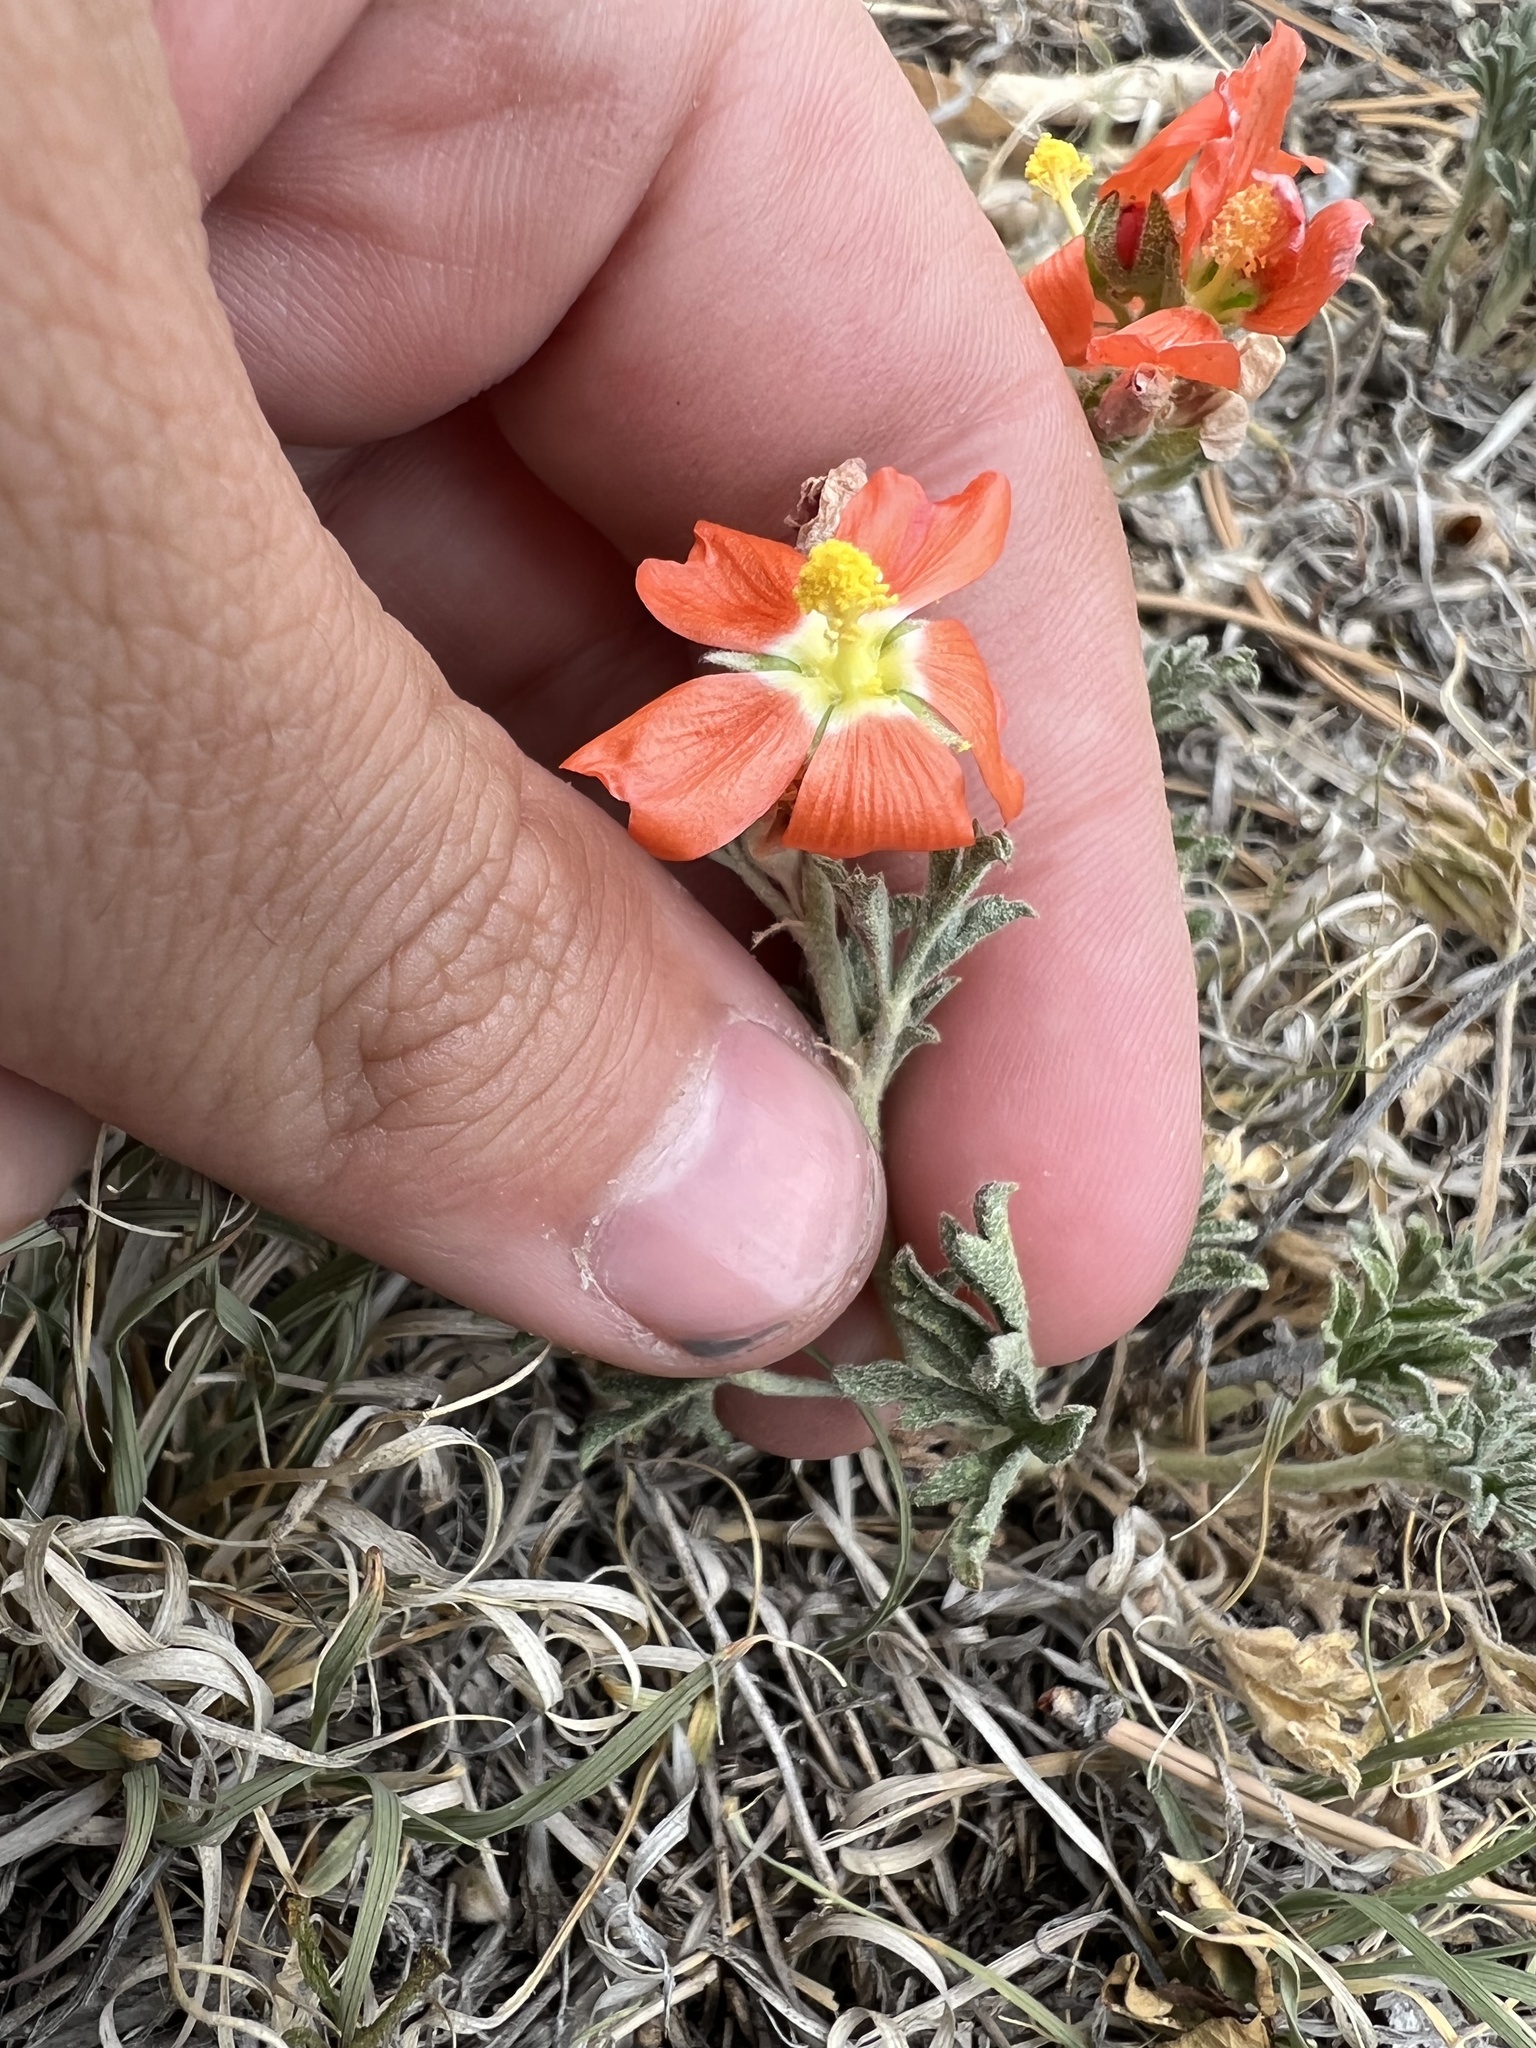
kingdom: Plantae
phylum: Tracheophyta
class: Magnoliopsida
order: Malvales
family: Malvaceae
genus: Sphaeralcea
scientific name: Sphaeralcea coccinea
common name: Moss-rose
